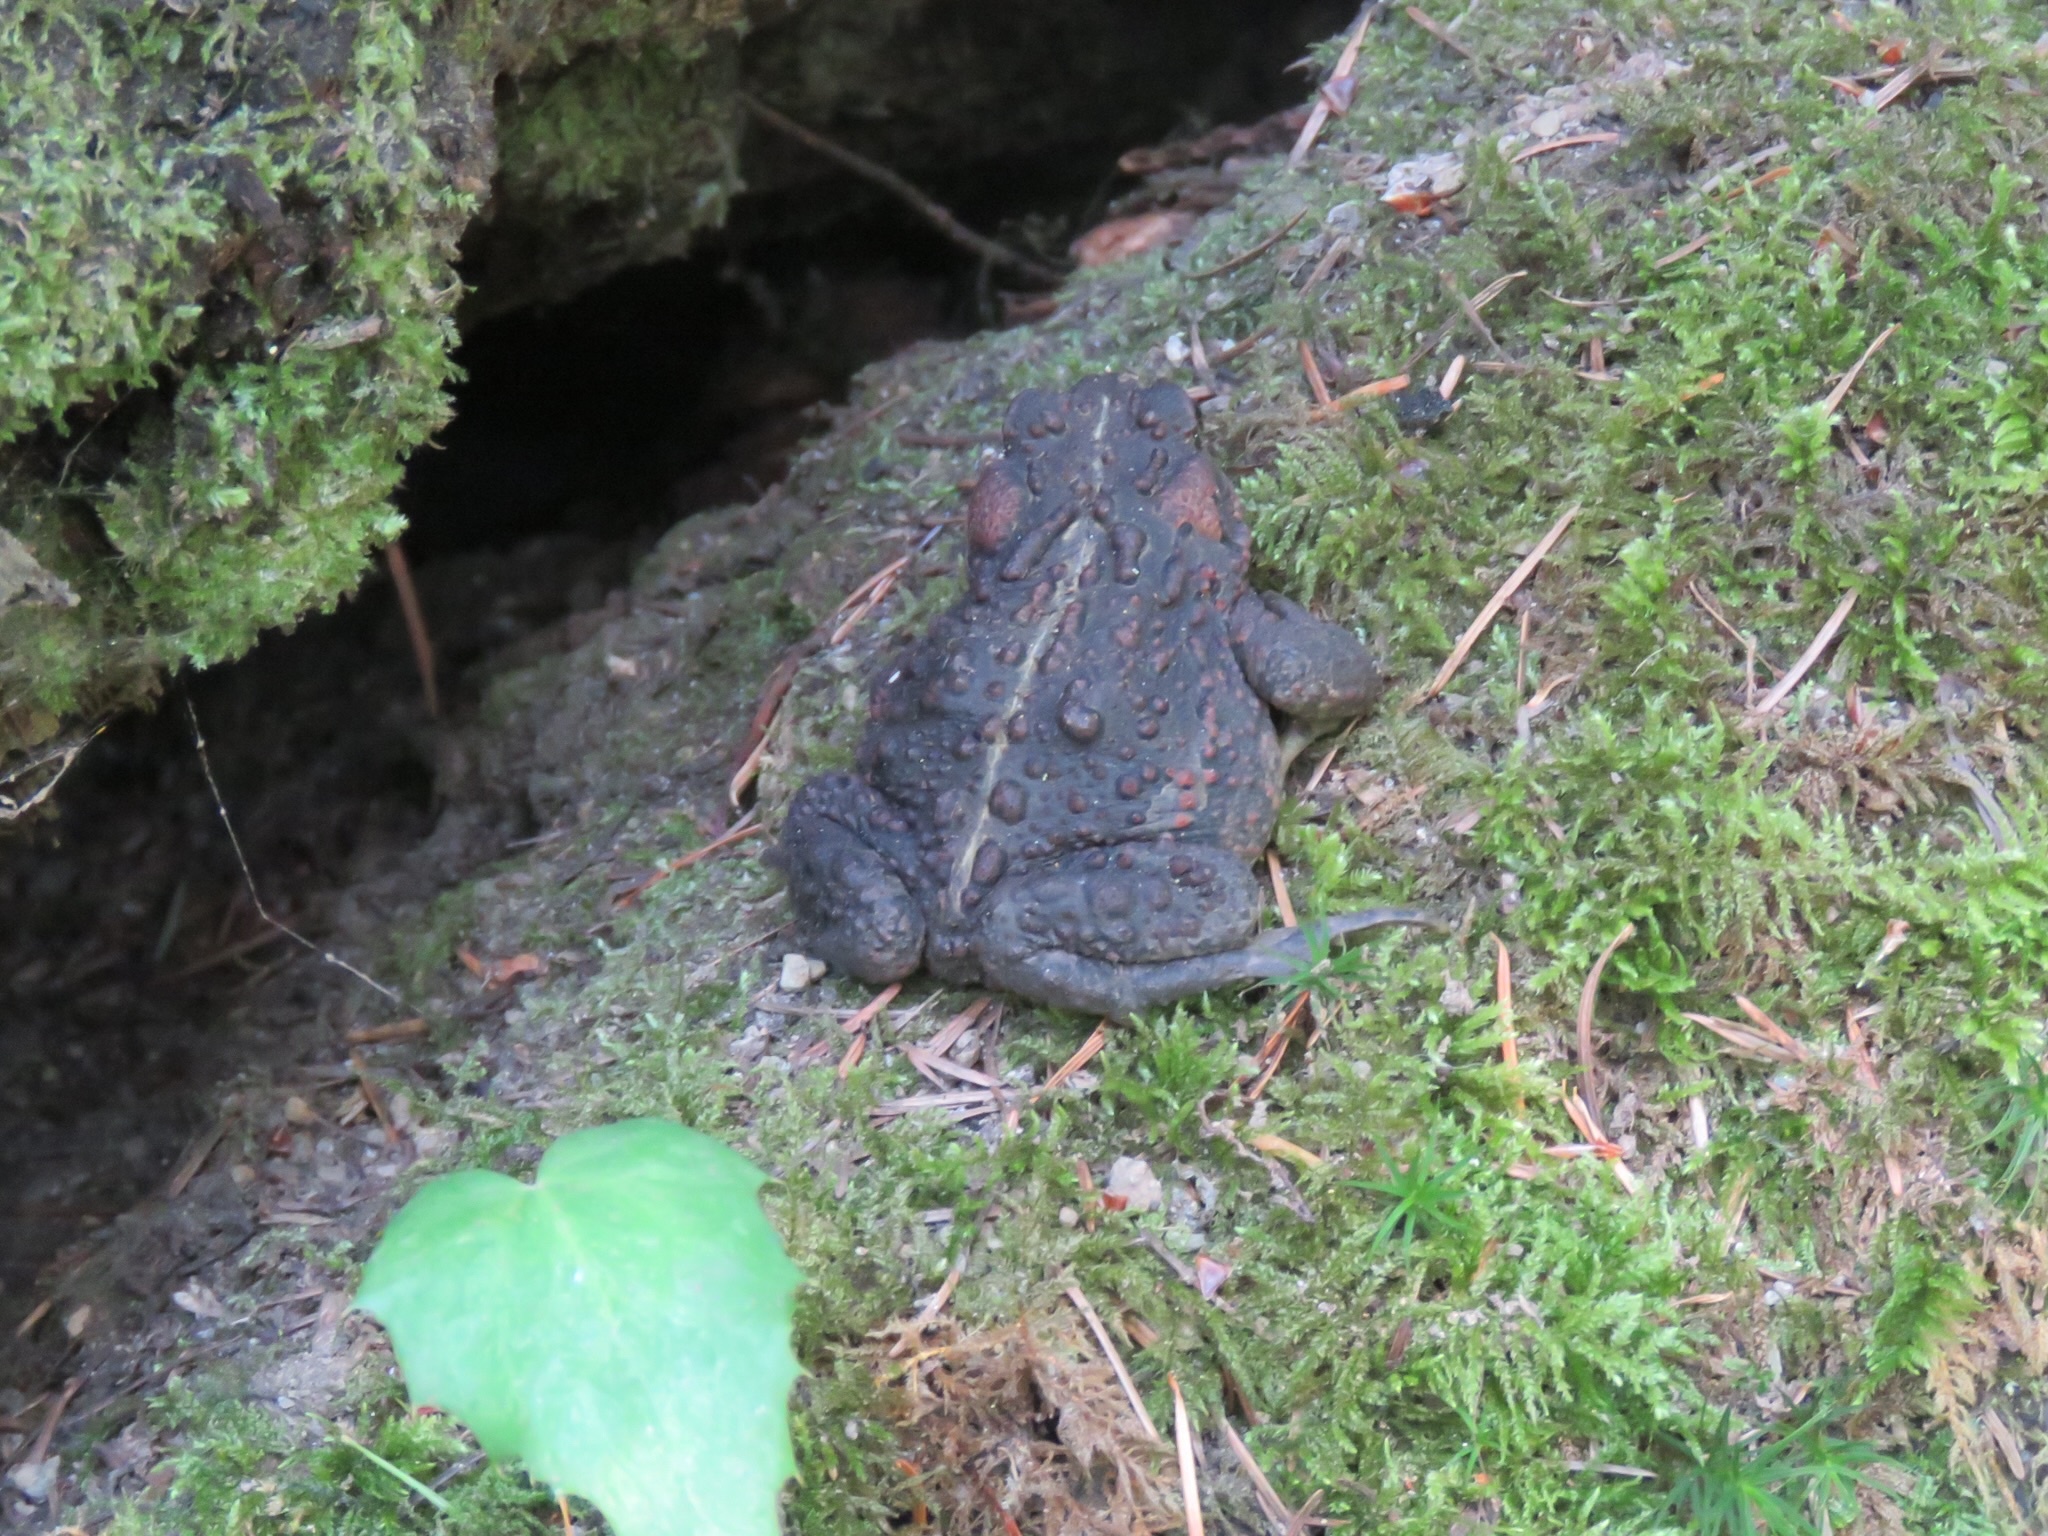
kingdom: Animalia
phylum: Chordata
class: Amphibia
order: Anura
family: Bufonidae
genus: Anaxyrus
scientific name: Anaxyrus boreas
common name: Western toad
